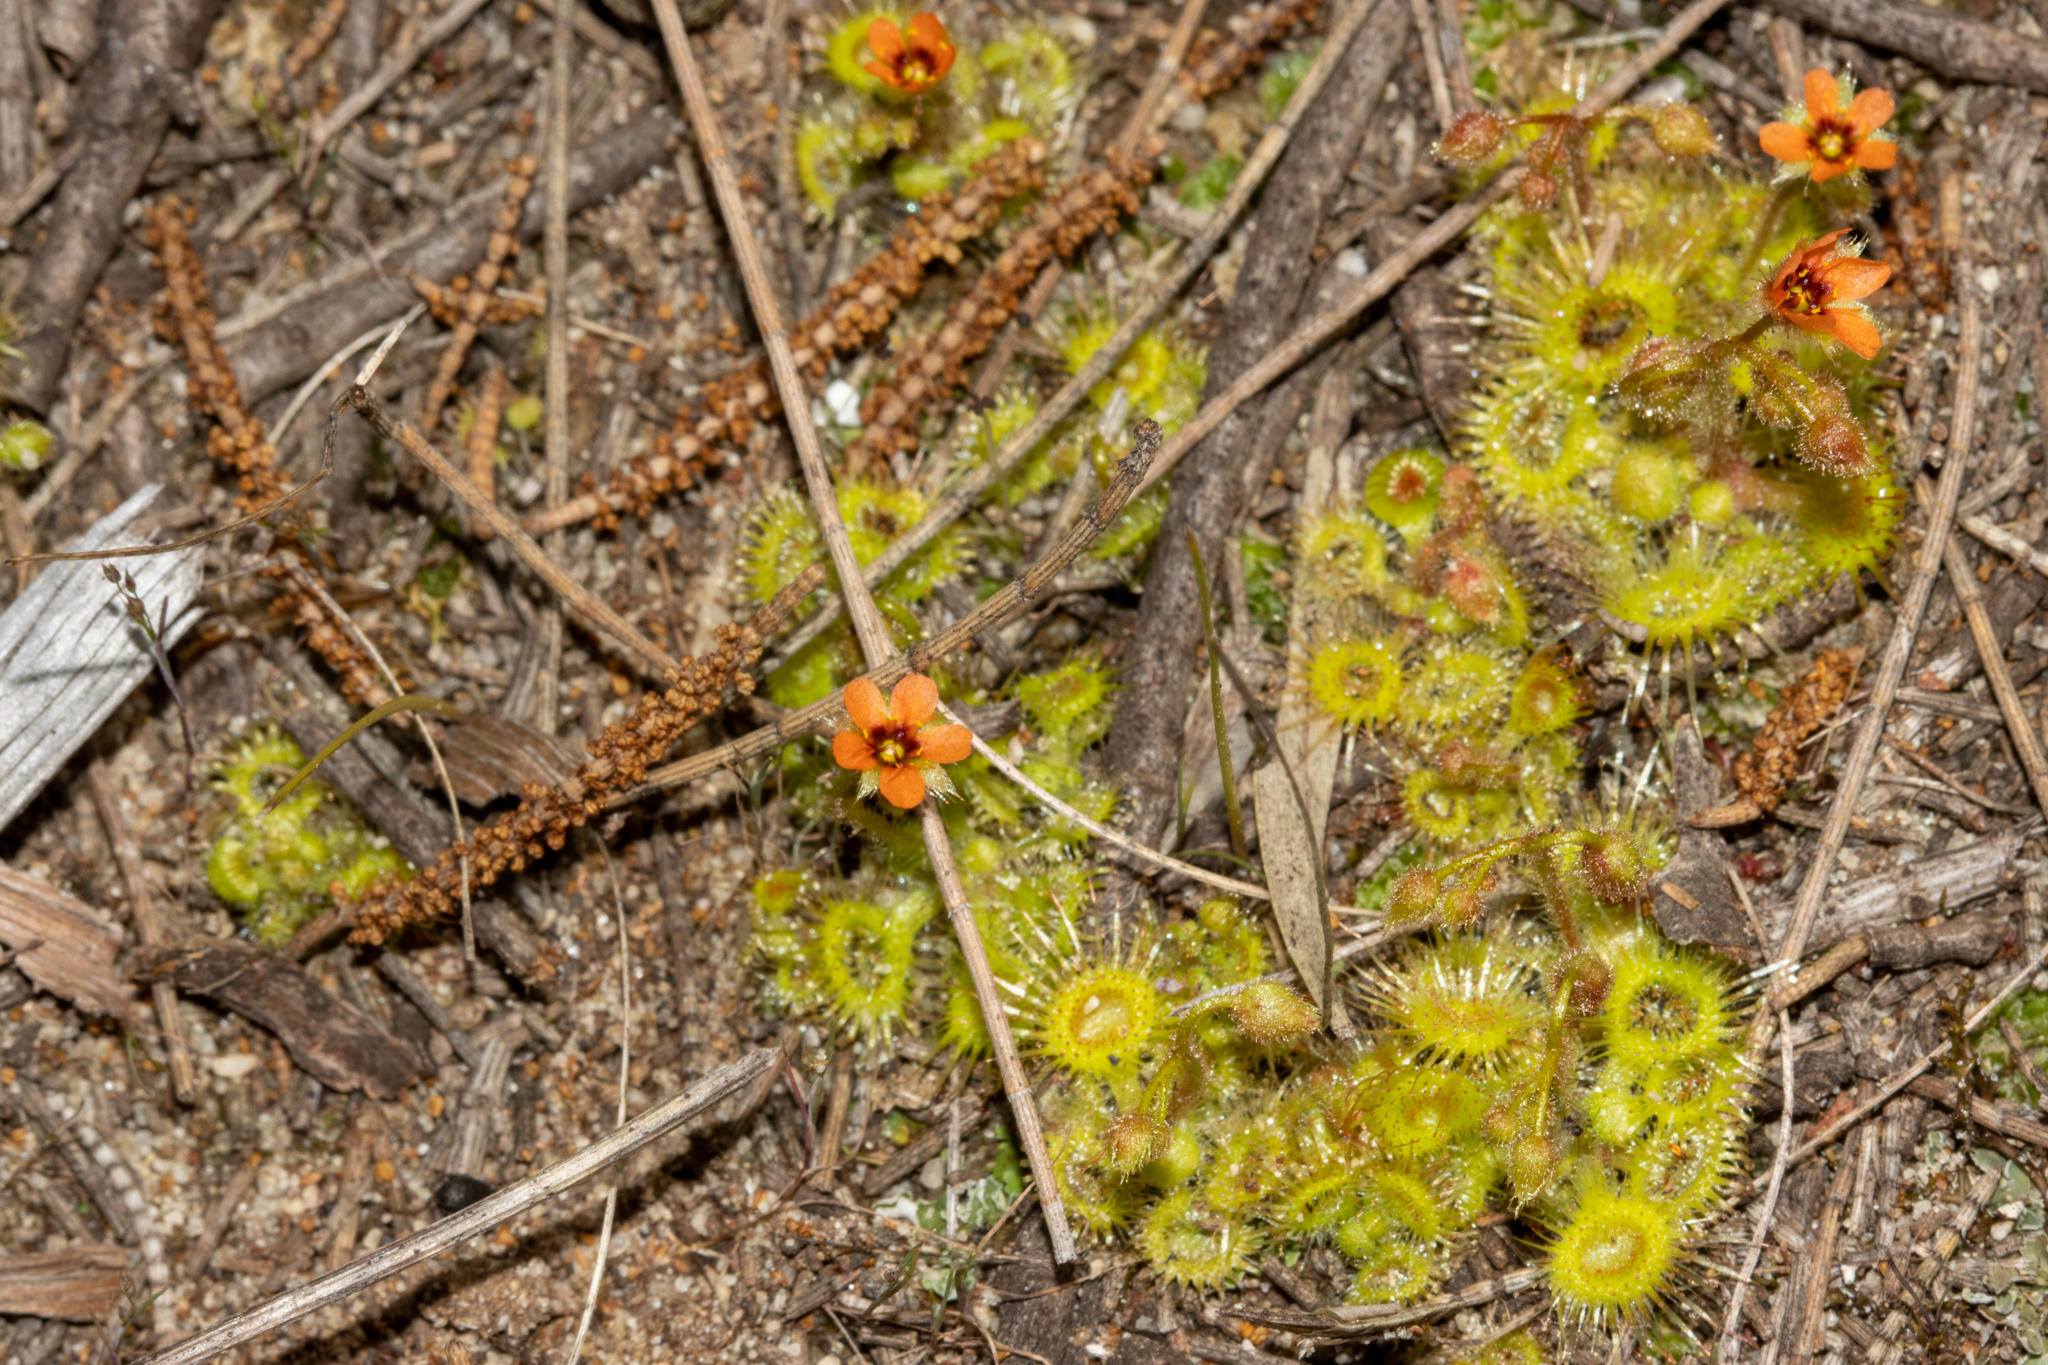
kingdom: Plantae
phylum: Tracheophyta
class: Magnoliopsida
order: Caryophyllales
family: Droseraceae
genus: Drosera
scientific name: Drosera glanduligera
